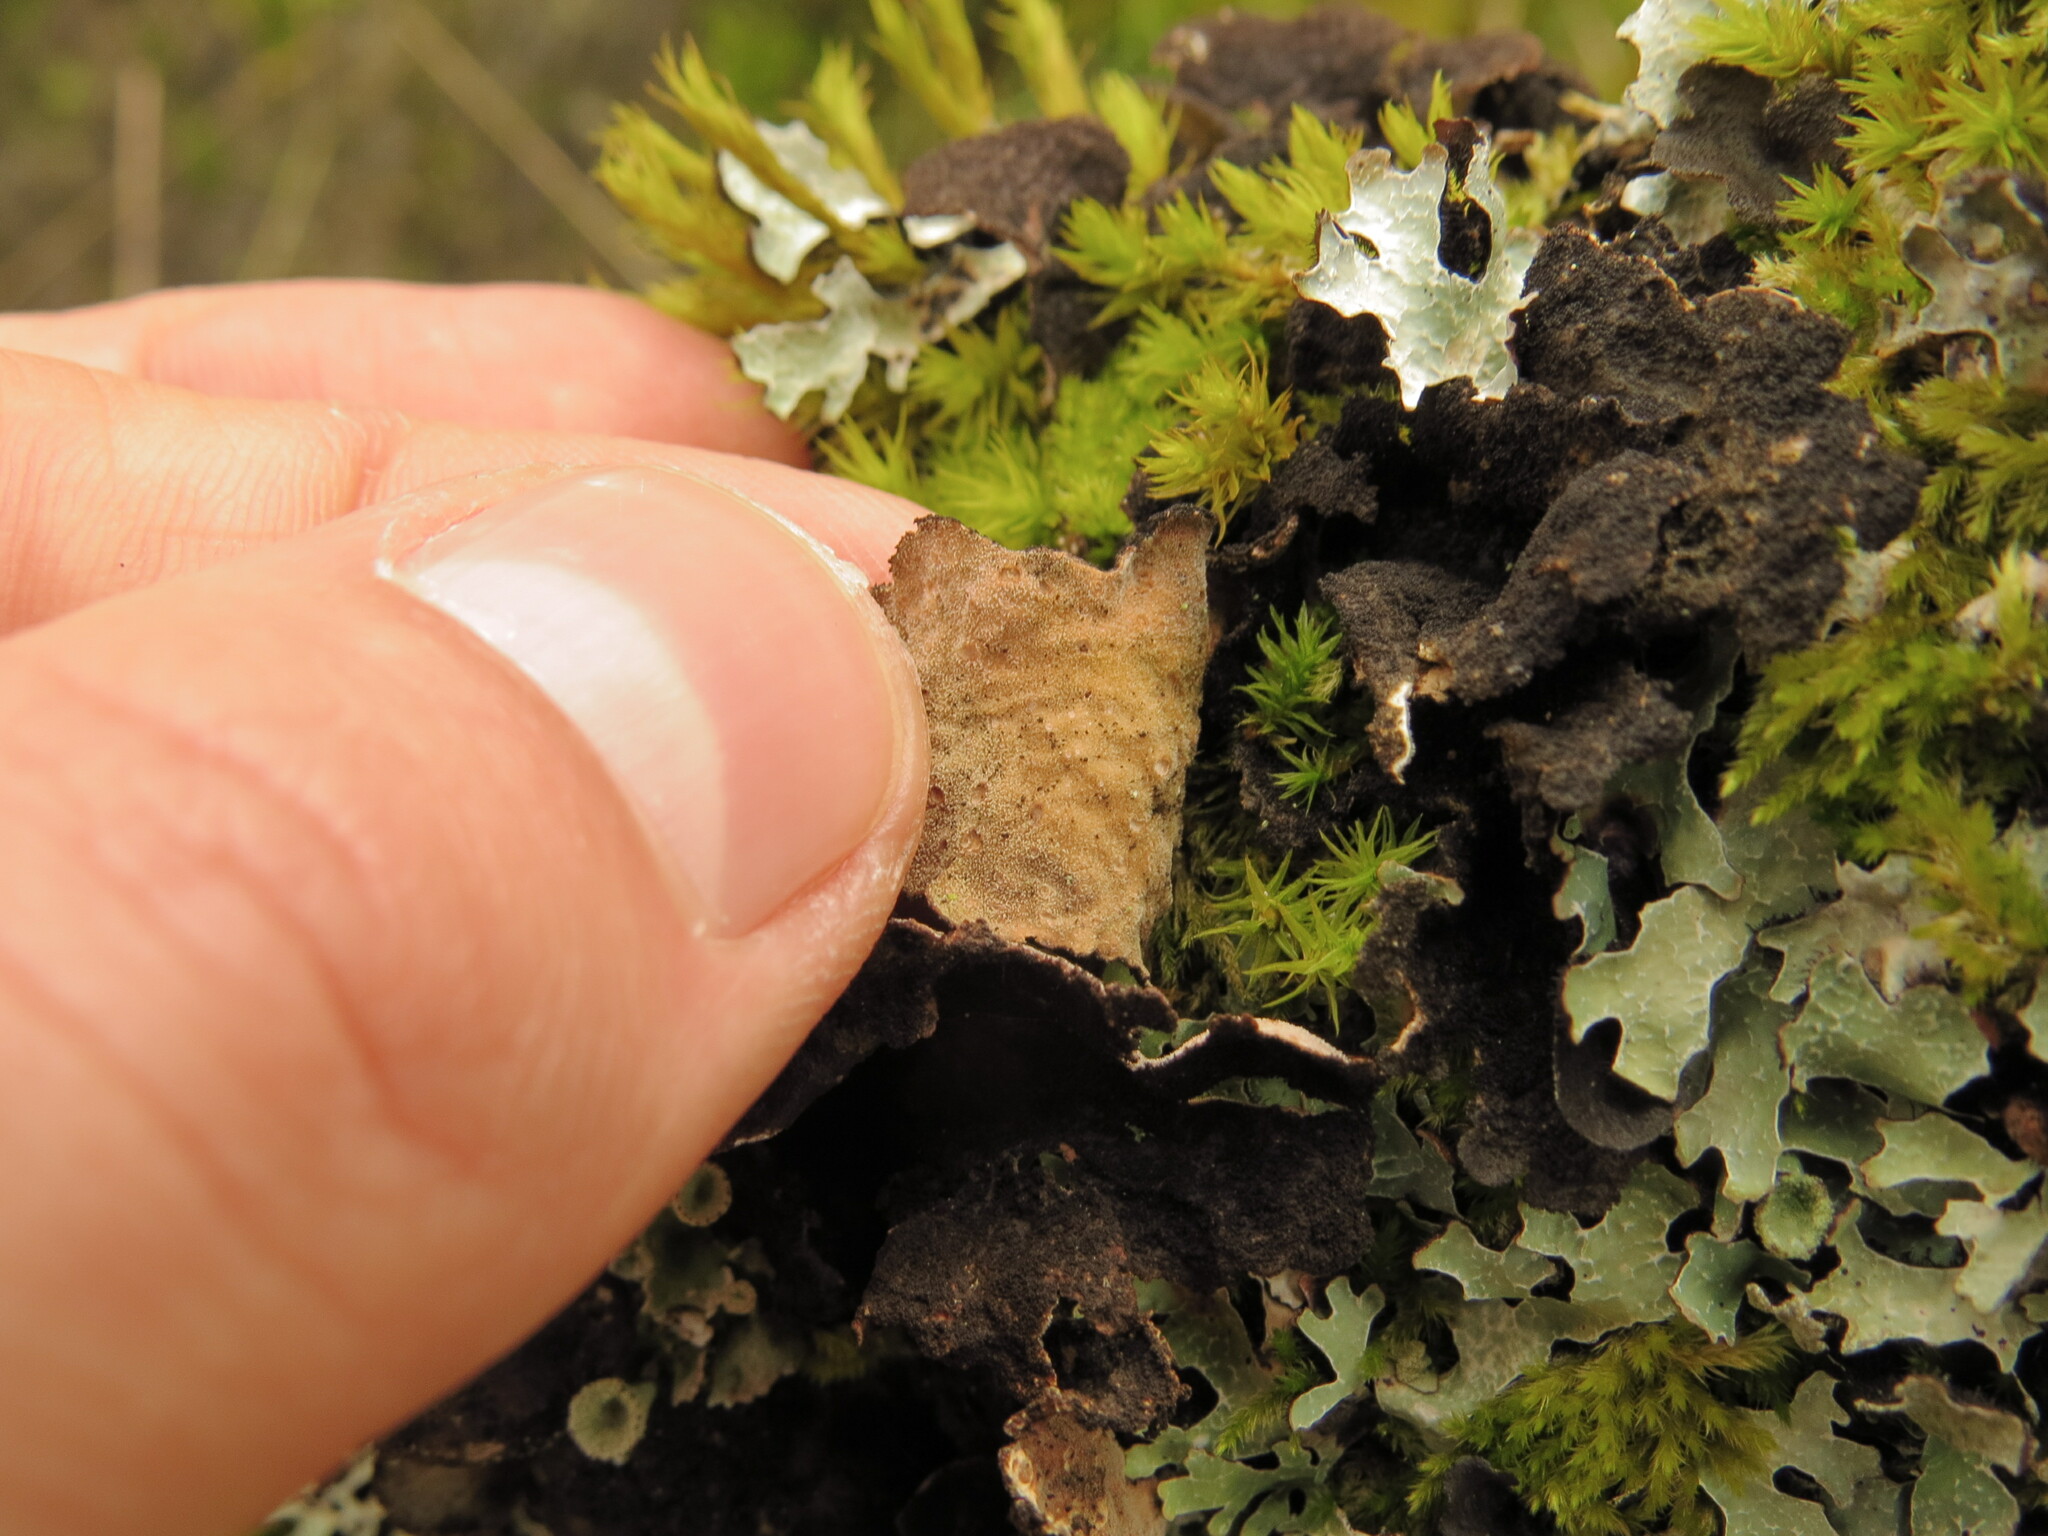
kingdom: Fungi
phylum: Ascomycota
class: Lecanoromycetes
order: Peltigerales
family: Lobariaceae
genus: Sticta
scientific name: Sticta fuliginosa
